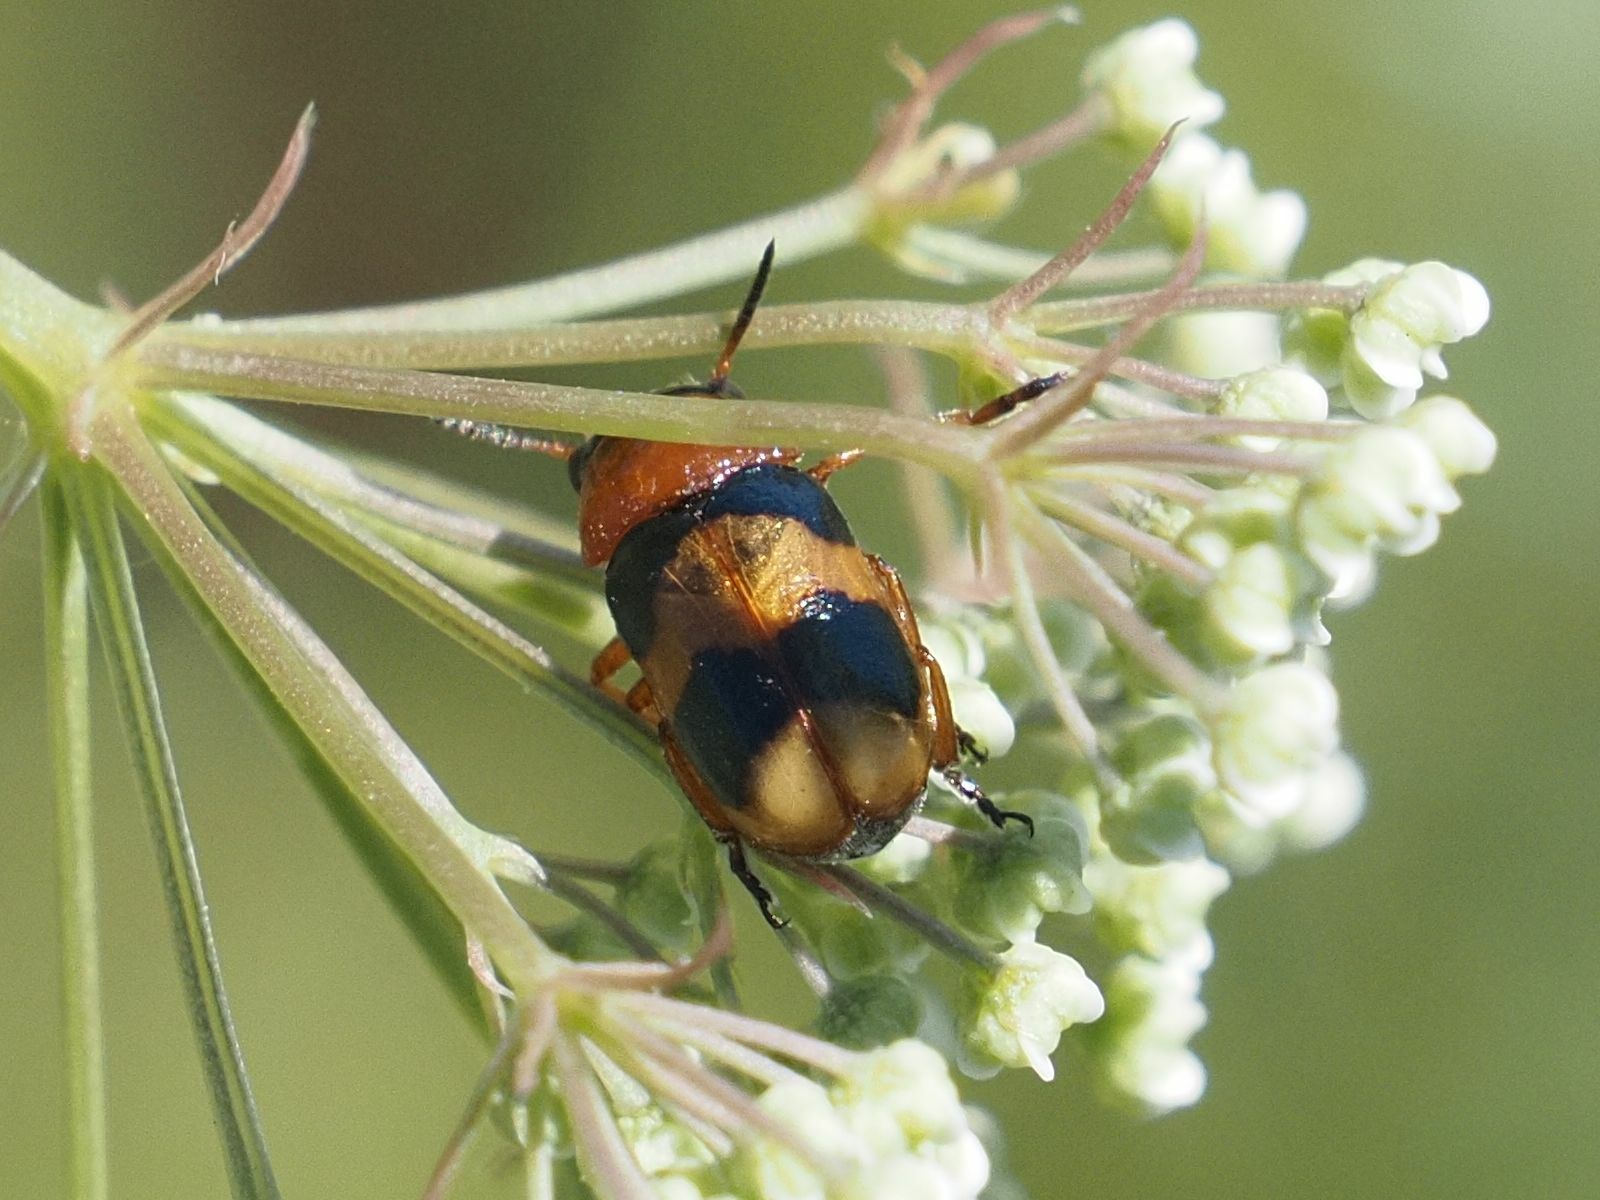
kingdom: Animalia
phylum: Arthropoda
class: Insecta
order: Coleoptera
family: Chrysomelidae
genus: Coptocephala
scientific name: Coptocephala unifasciata
